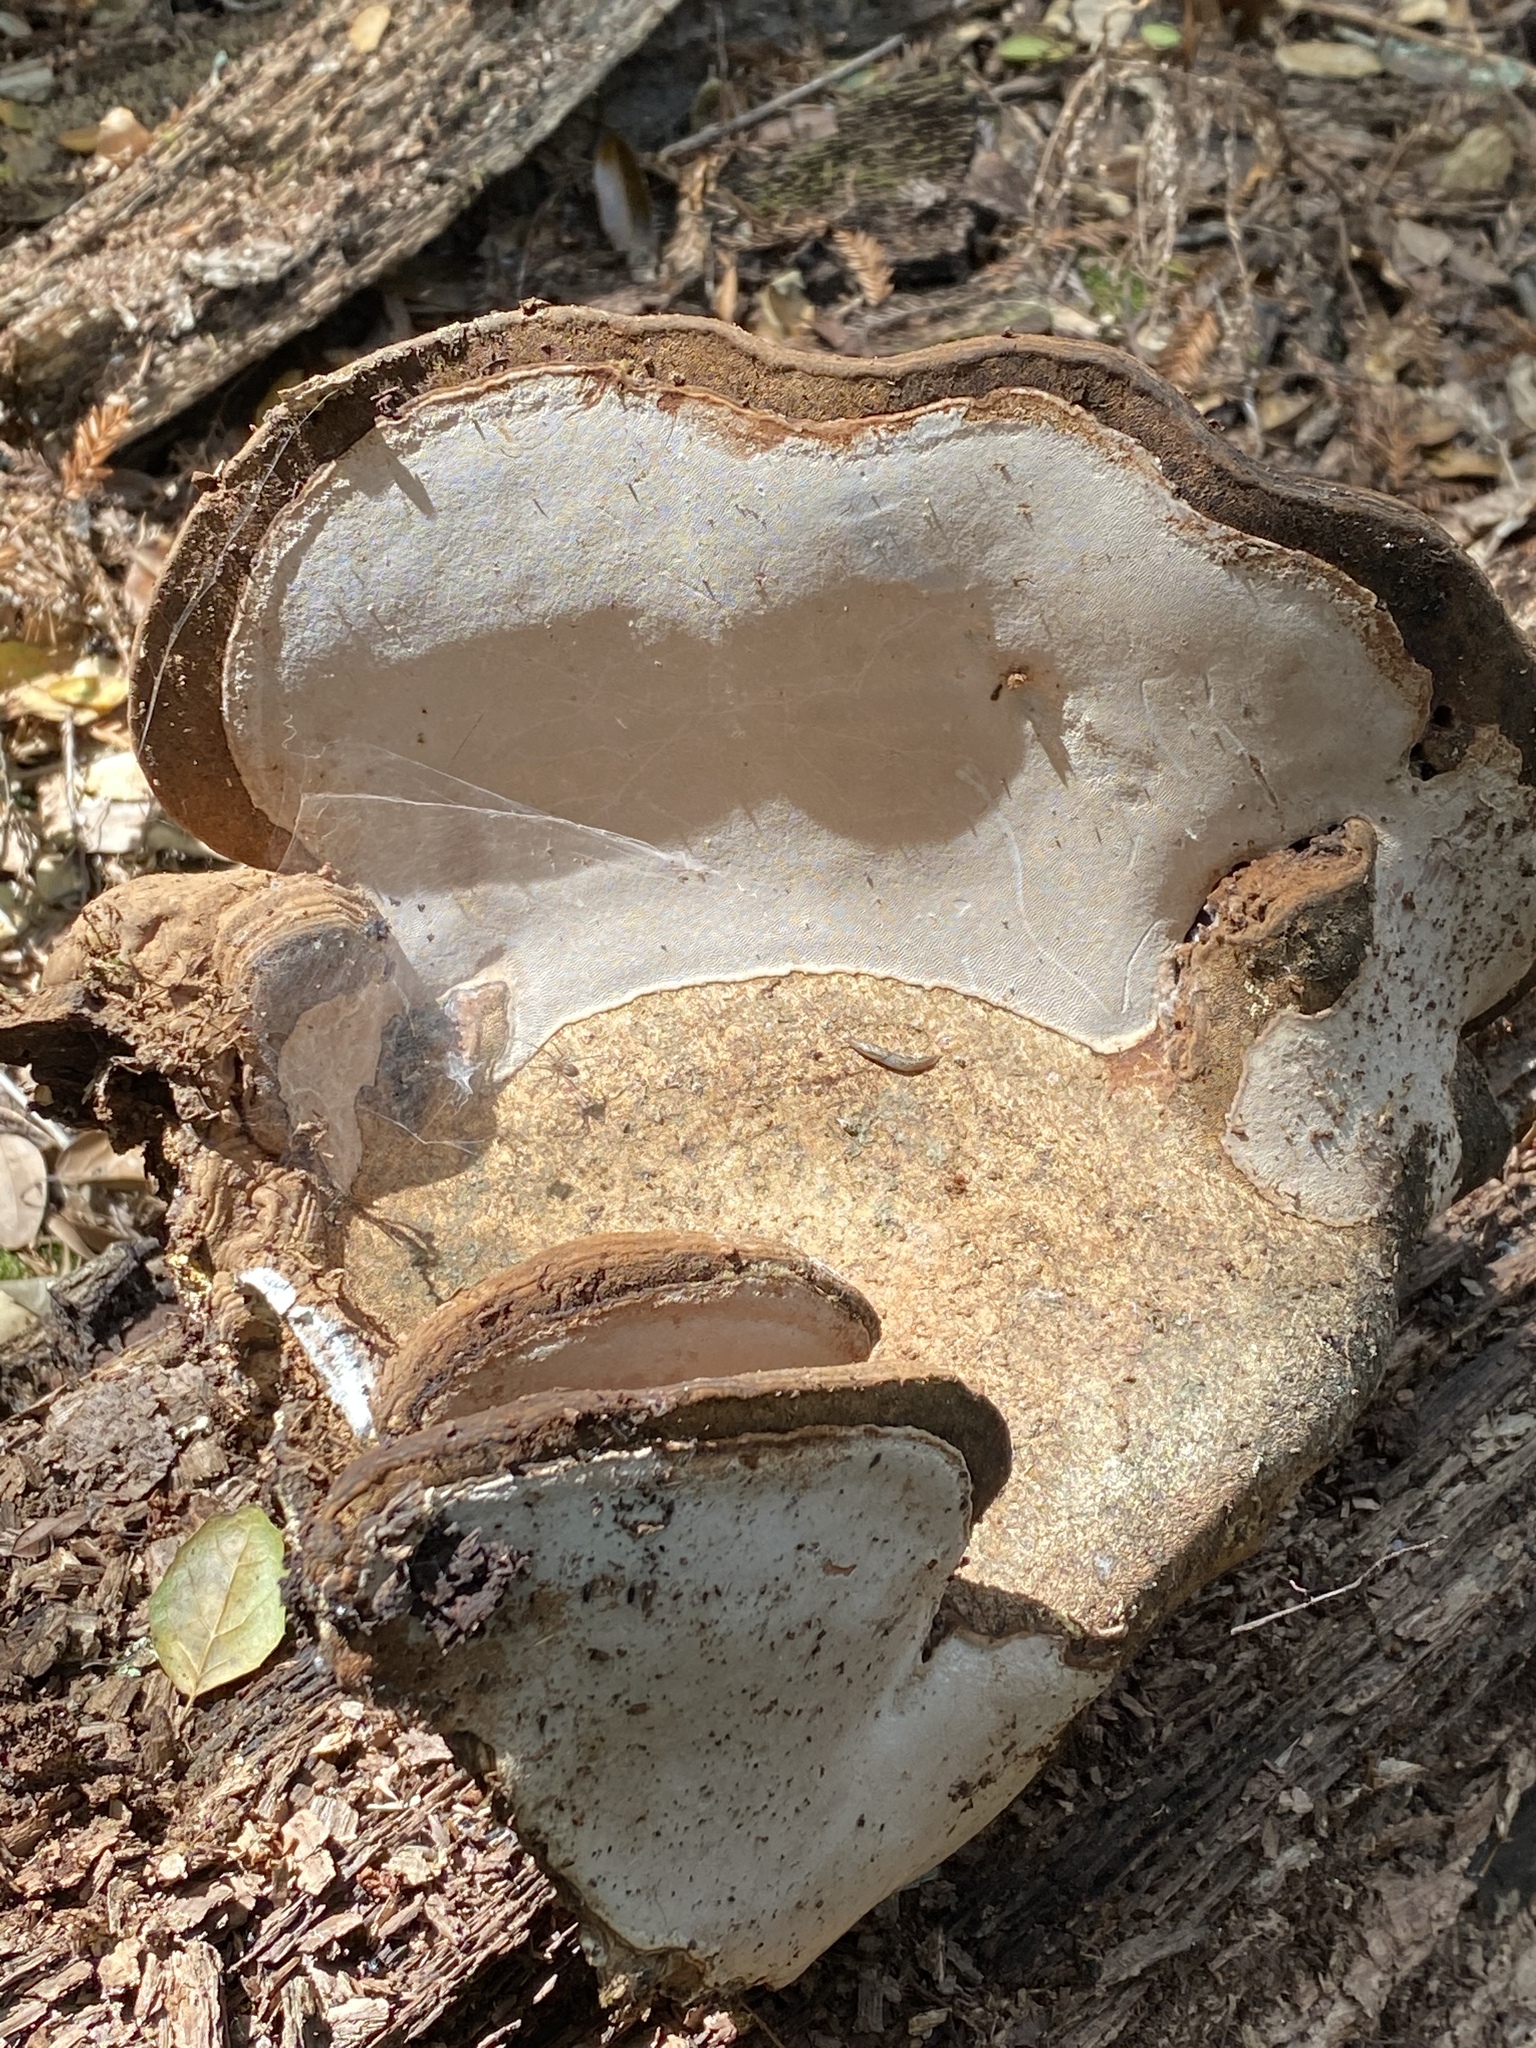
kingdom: Fungi
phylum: Basidiomycota
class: Agaricomycetes
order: Polyporales
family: Polyporaceae
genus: Ganoderma
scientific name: Ganoderma brownii
